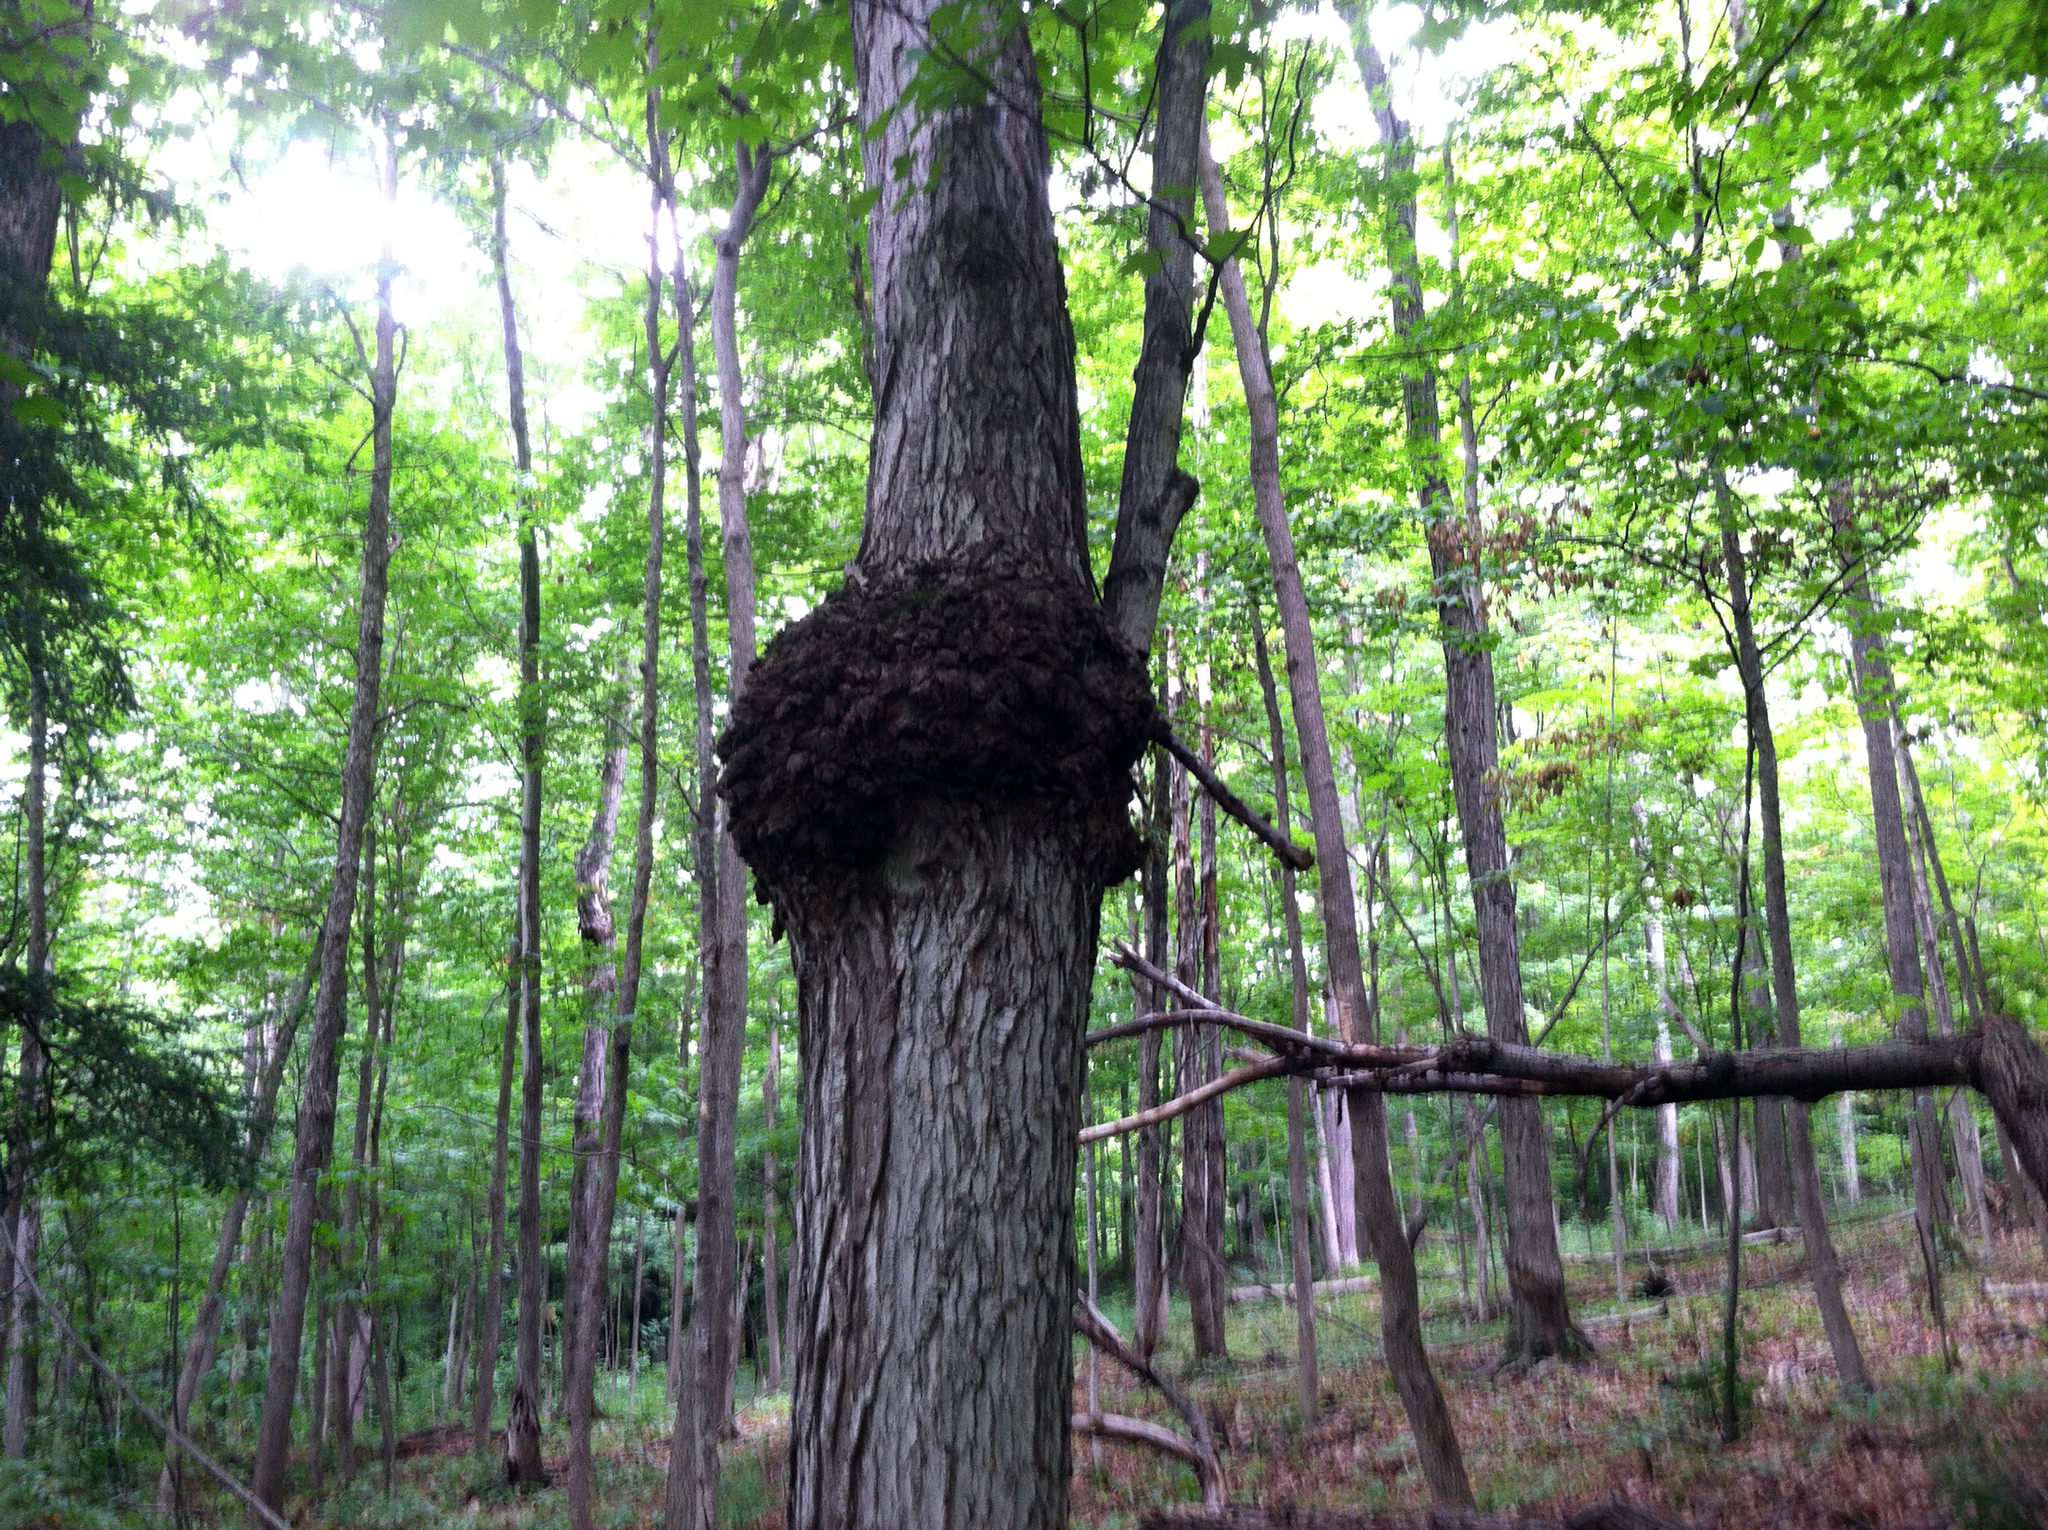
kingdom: Plantae
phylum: Tracheophyta
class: Magnoliopsida
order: Sapindales
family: Sapindaceae
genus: Acer
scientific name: Acer saccharum
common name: Sugar maple
